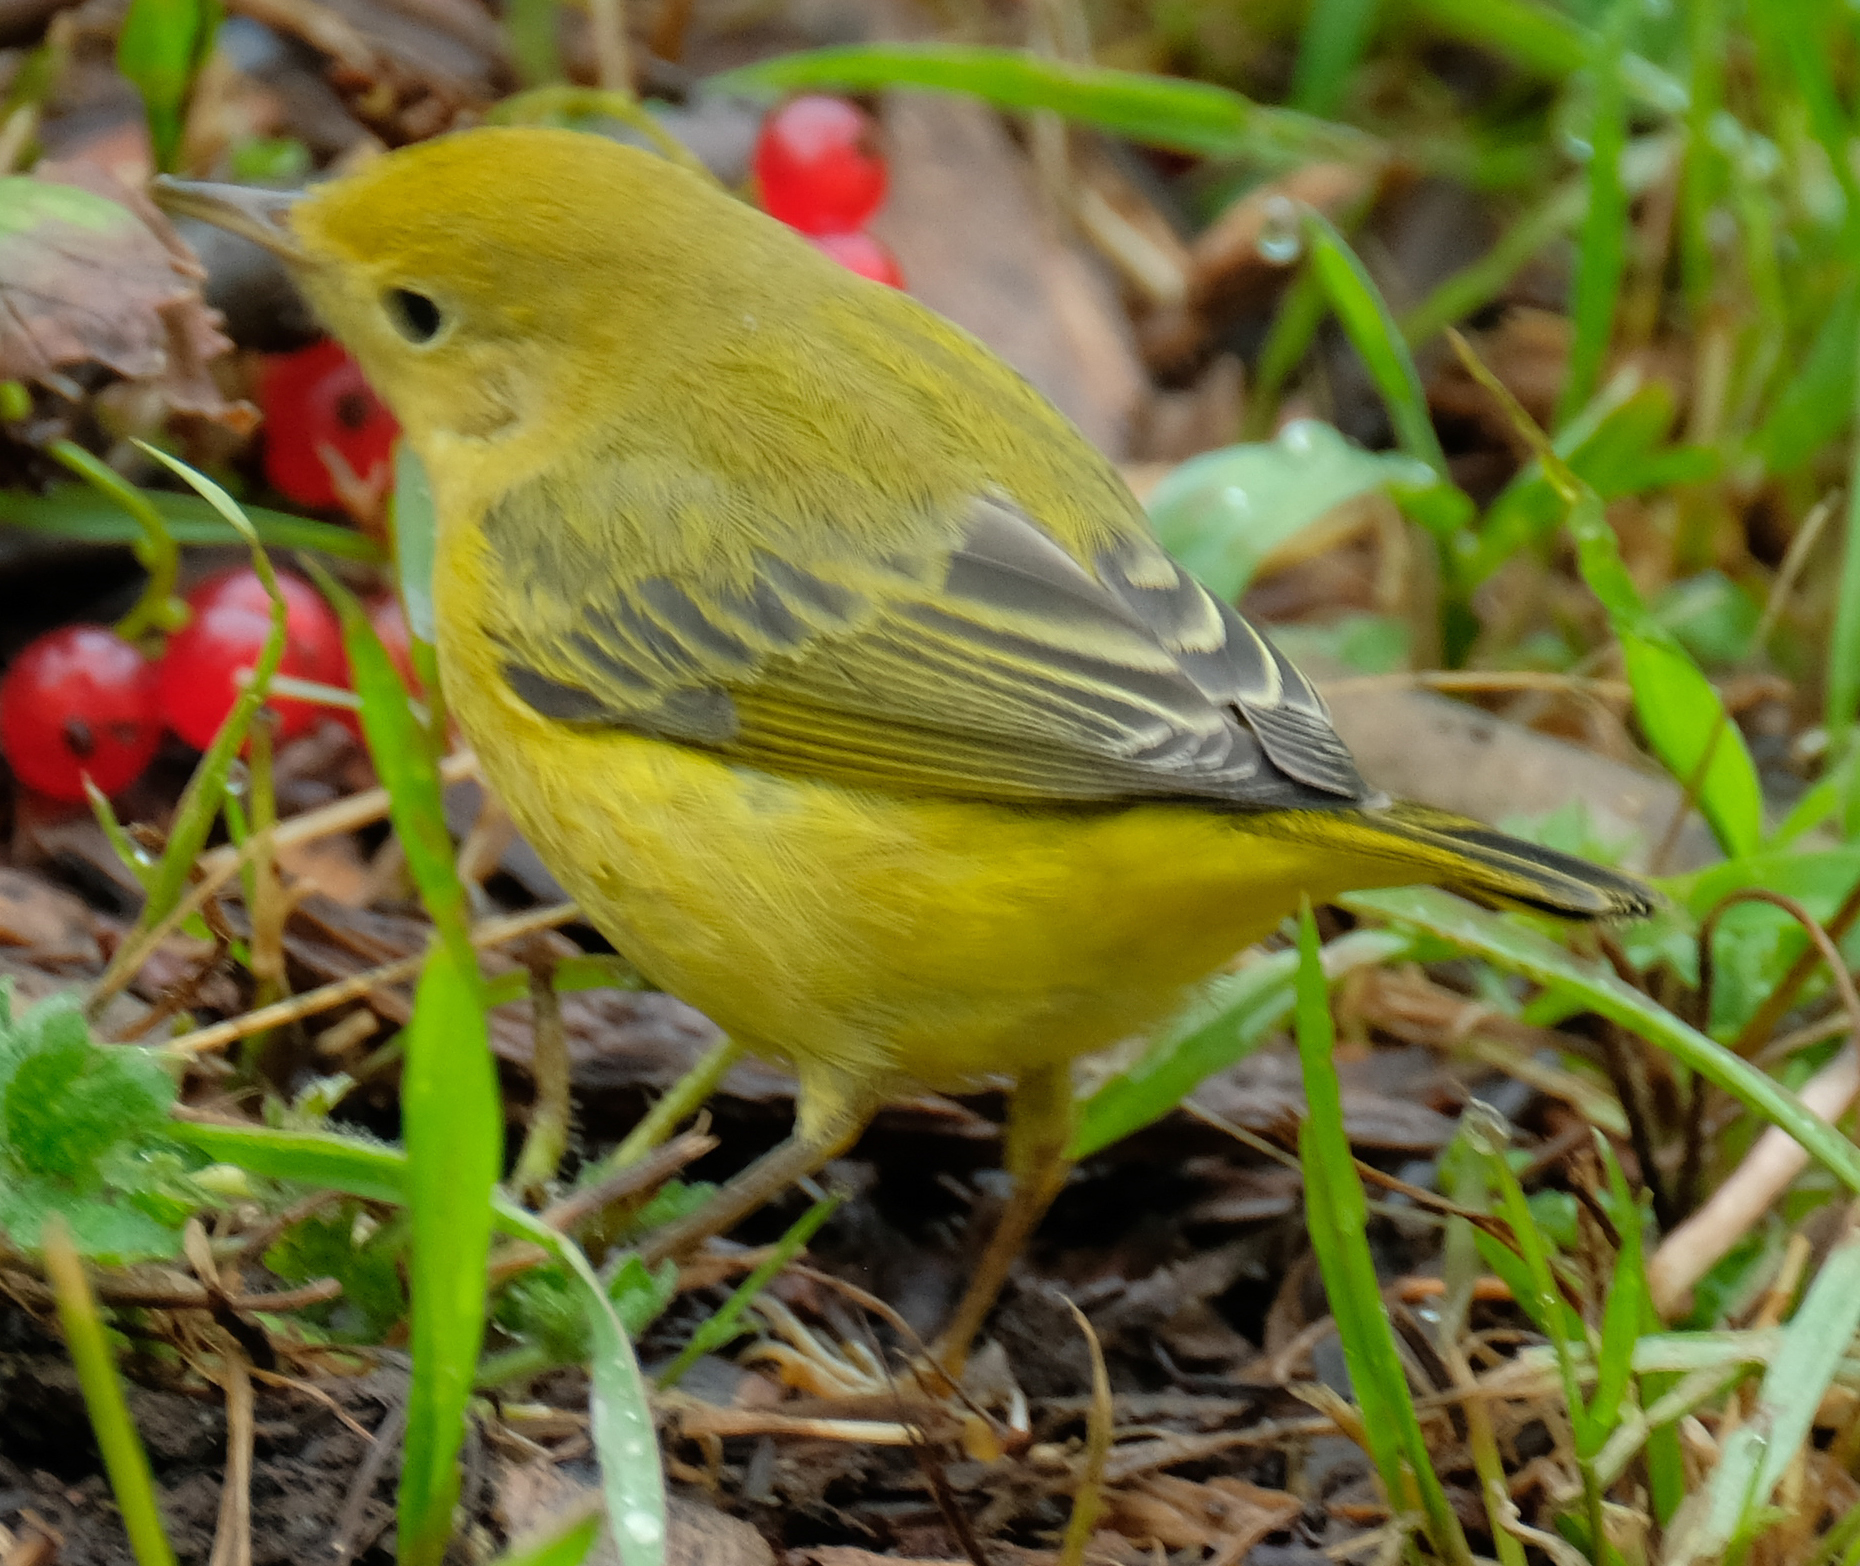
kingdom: Animalia
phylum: Chordata
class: Aves
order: Passeriformes
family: Parulidae
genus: Setophaga
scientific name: Setophaga petechia
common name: Yellow warbler
